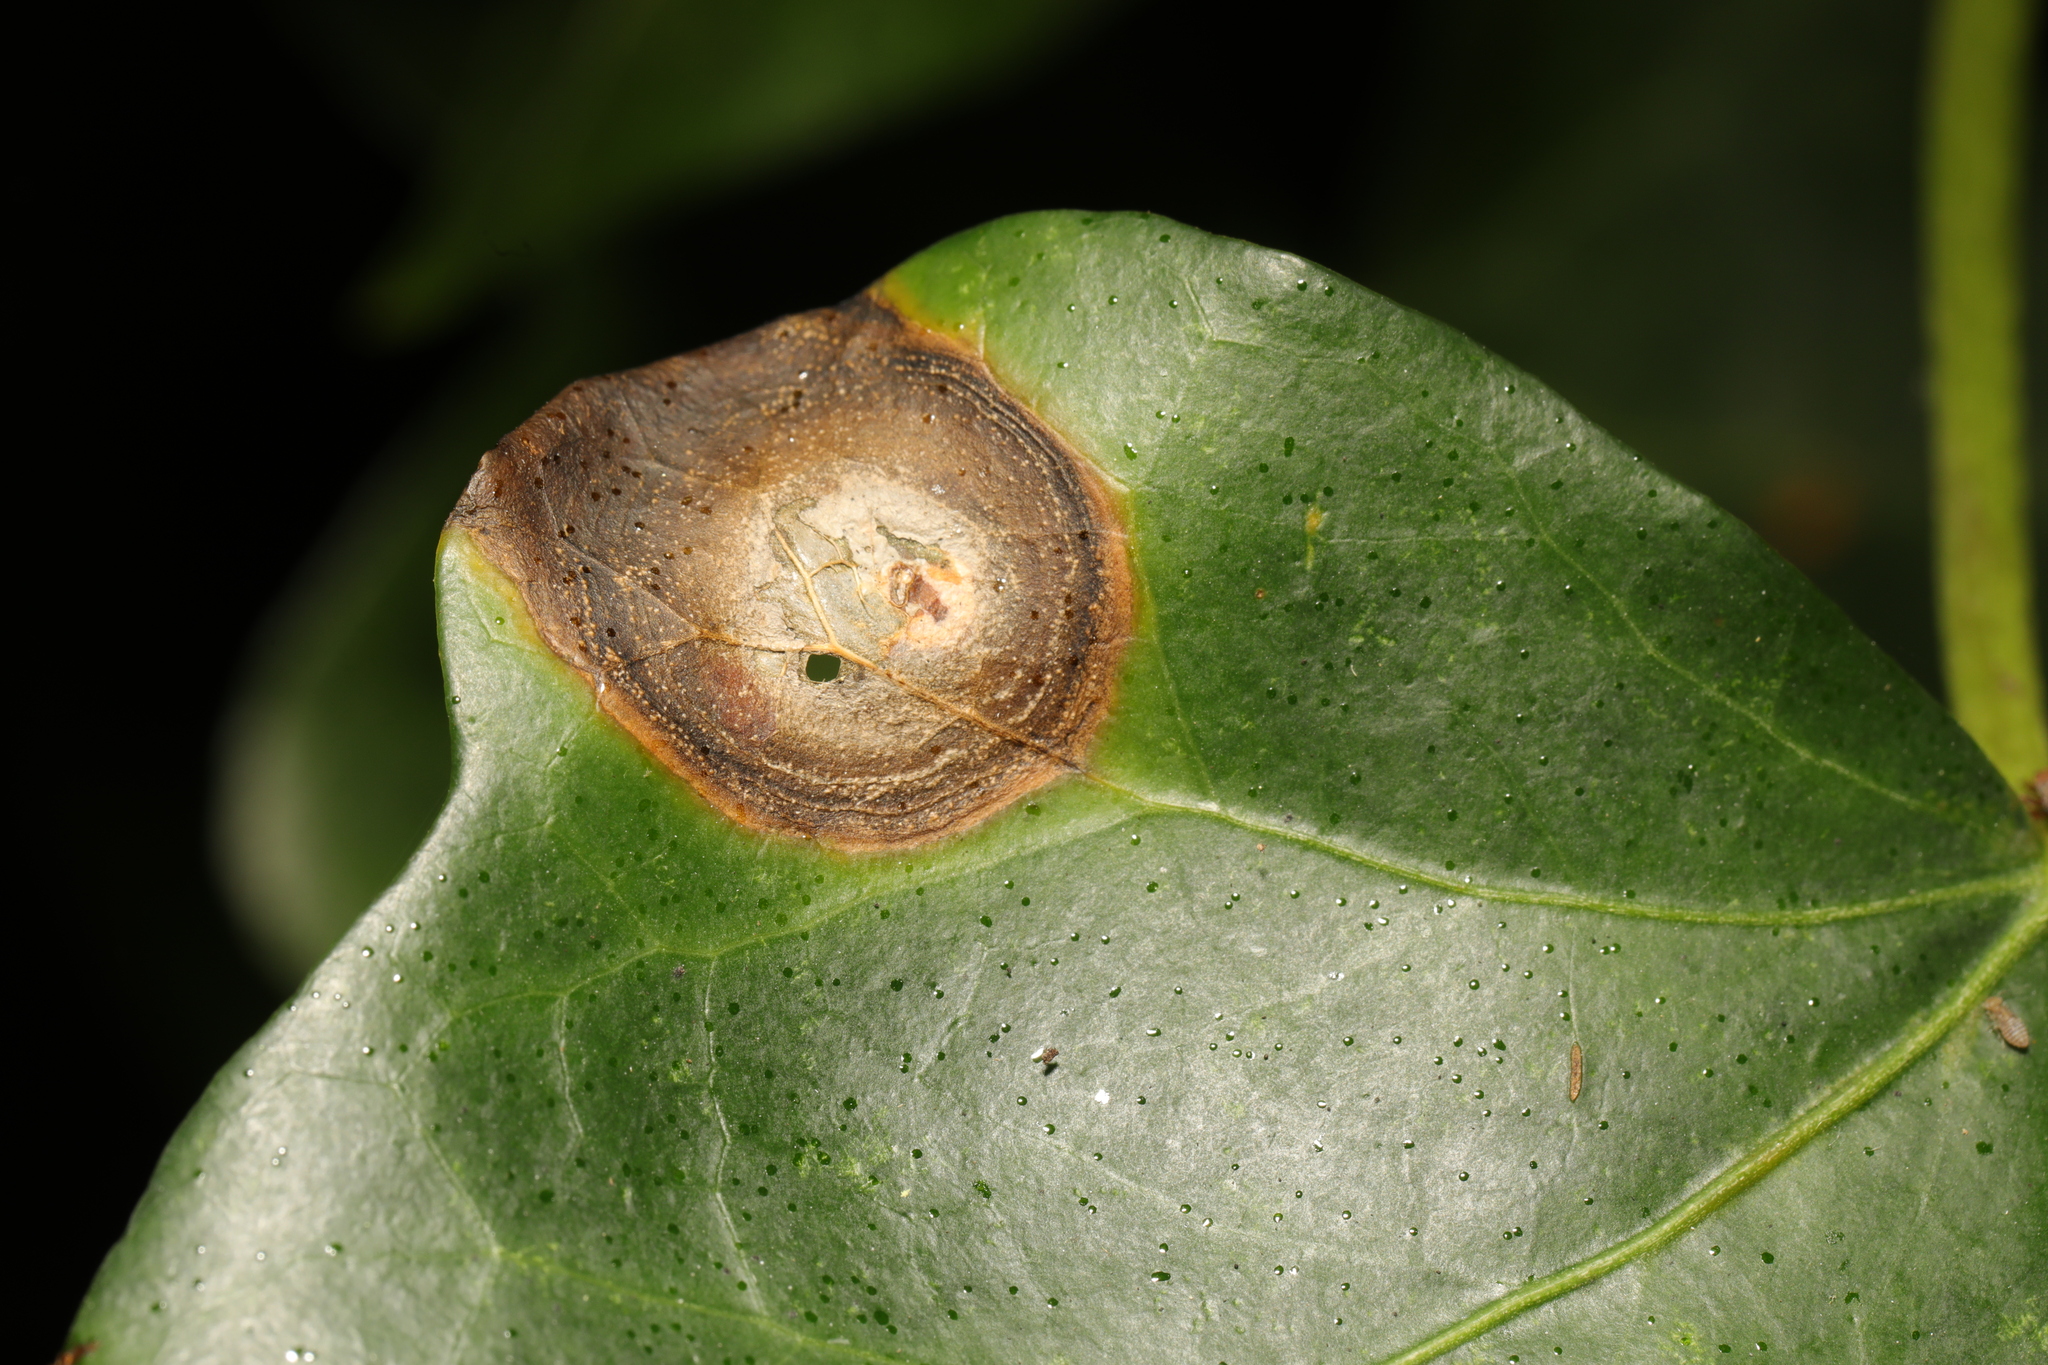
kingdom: Fungi
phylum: Ascomycota
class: Dothideomycetes
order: Pleosporales
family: Didymellaceae
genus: Boeremia
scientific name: Boeremia hedericola
